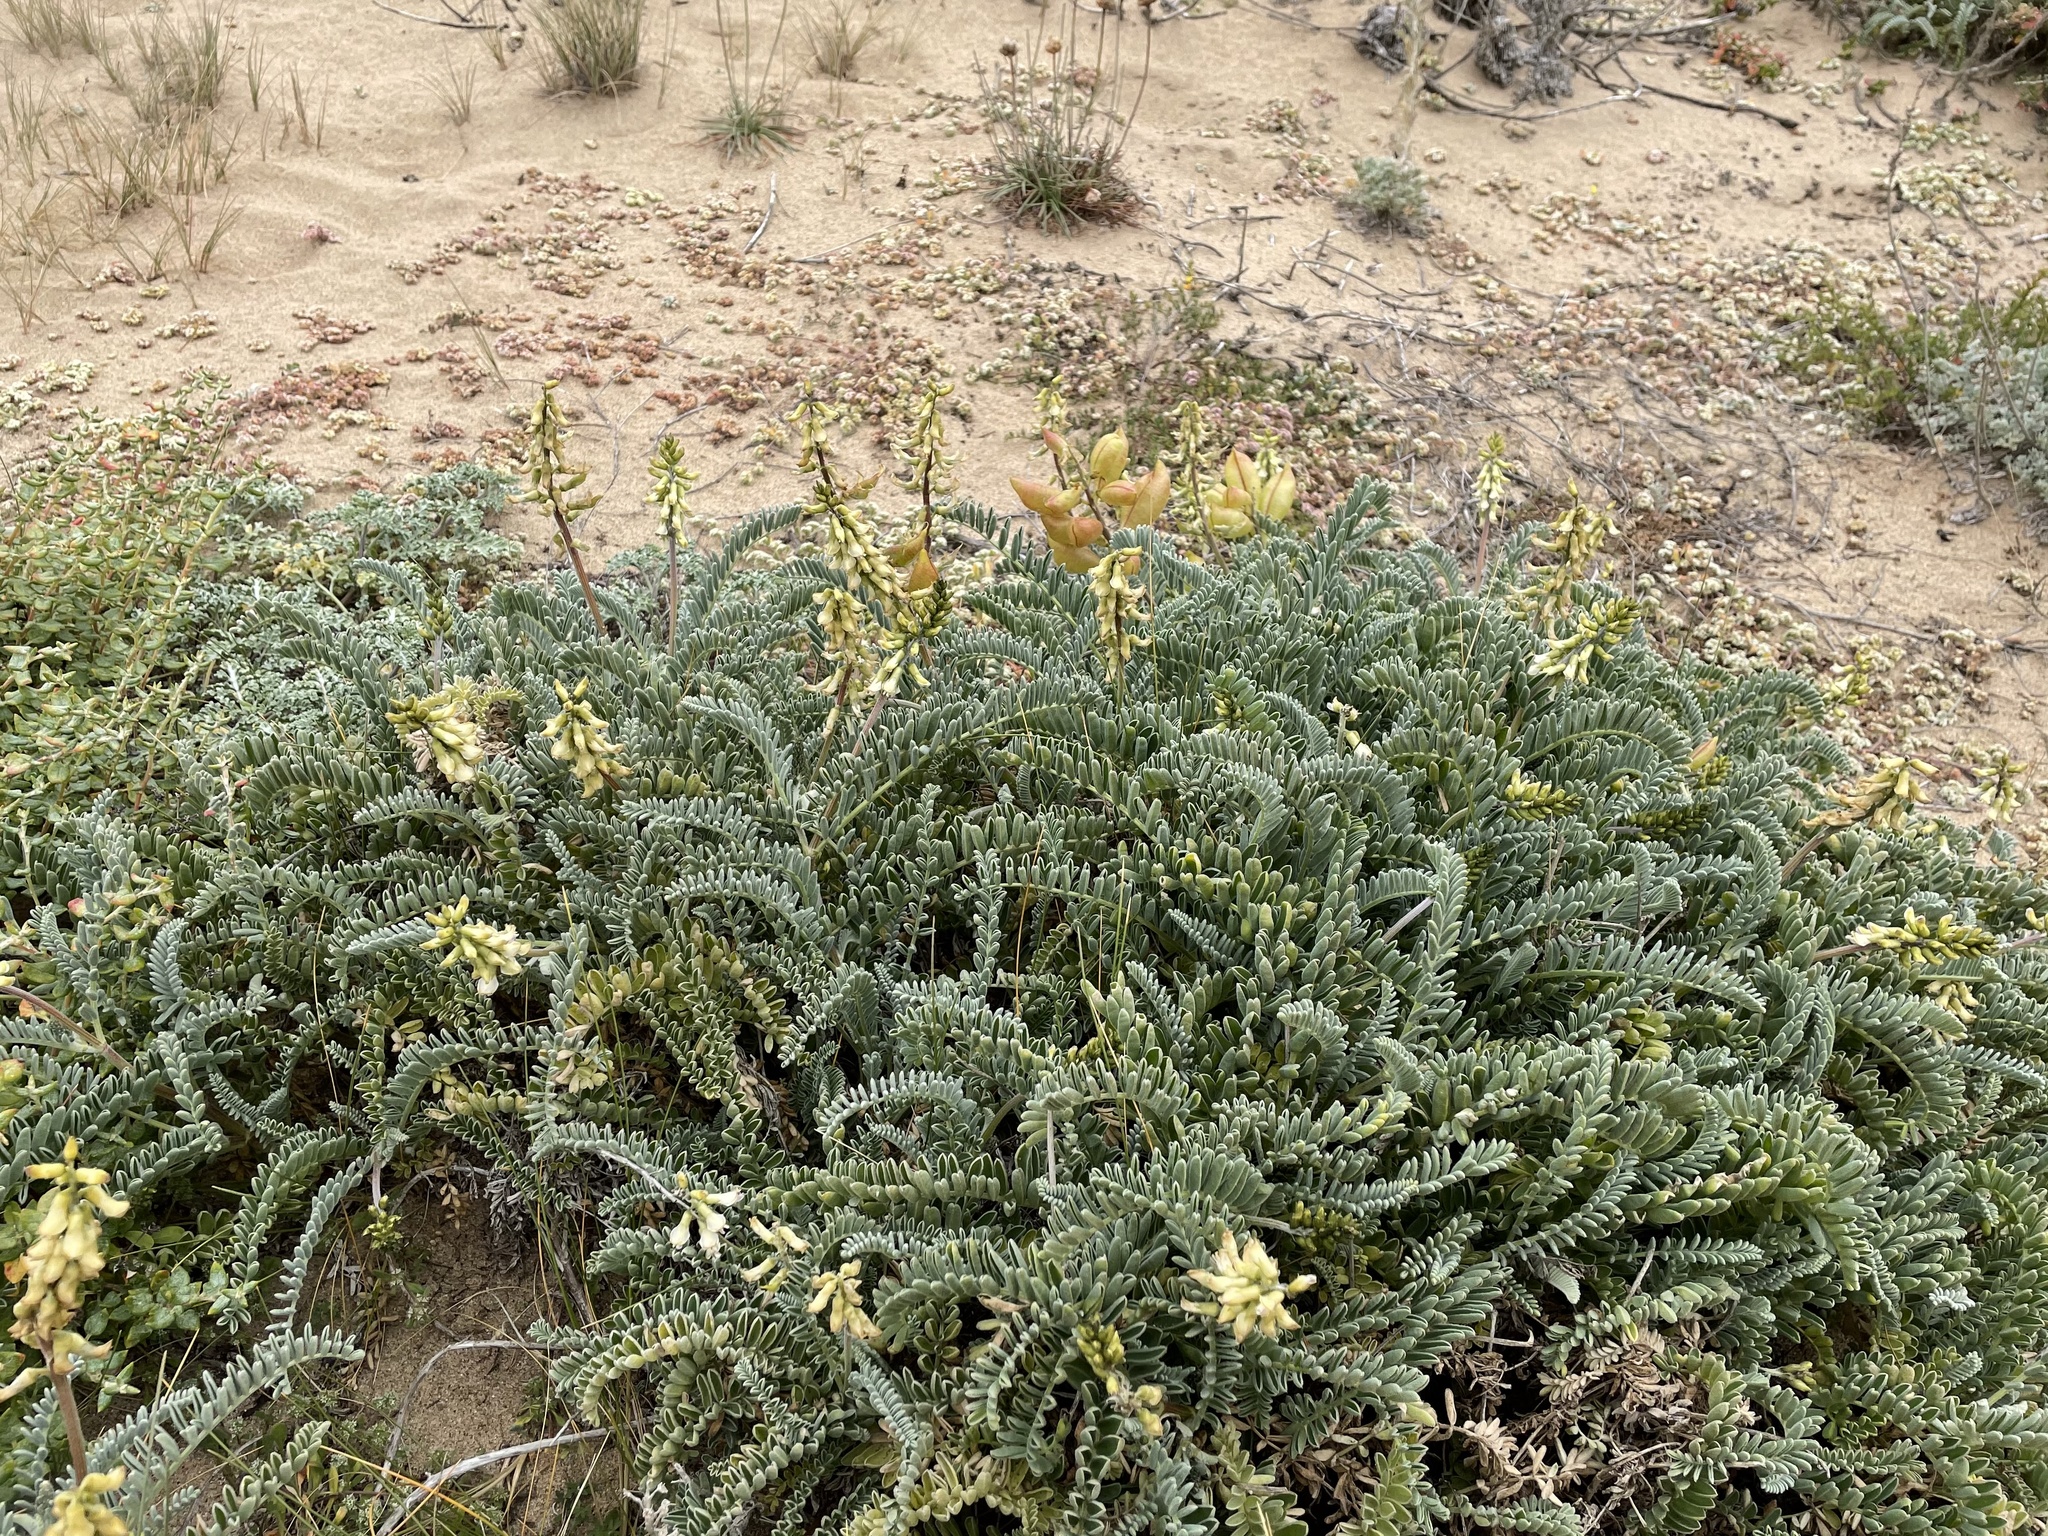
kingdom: Plantae
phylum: Tracheophyta
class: Magnoliopsida
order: Fabales
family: Fabaceae
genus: Astragalus
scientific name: Astragalus nuttallii
